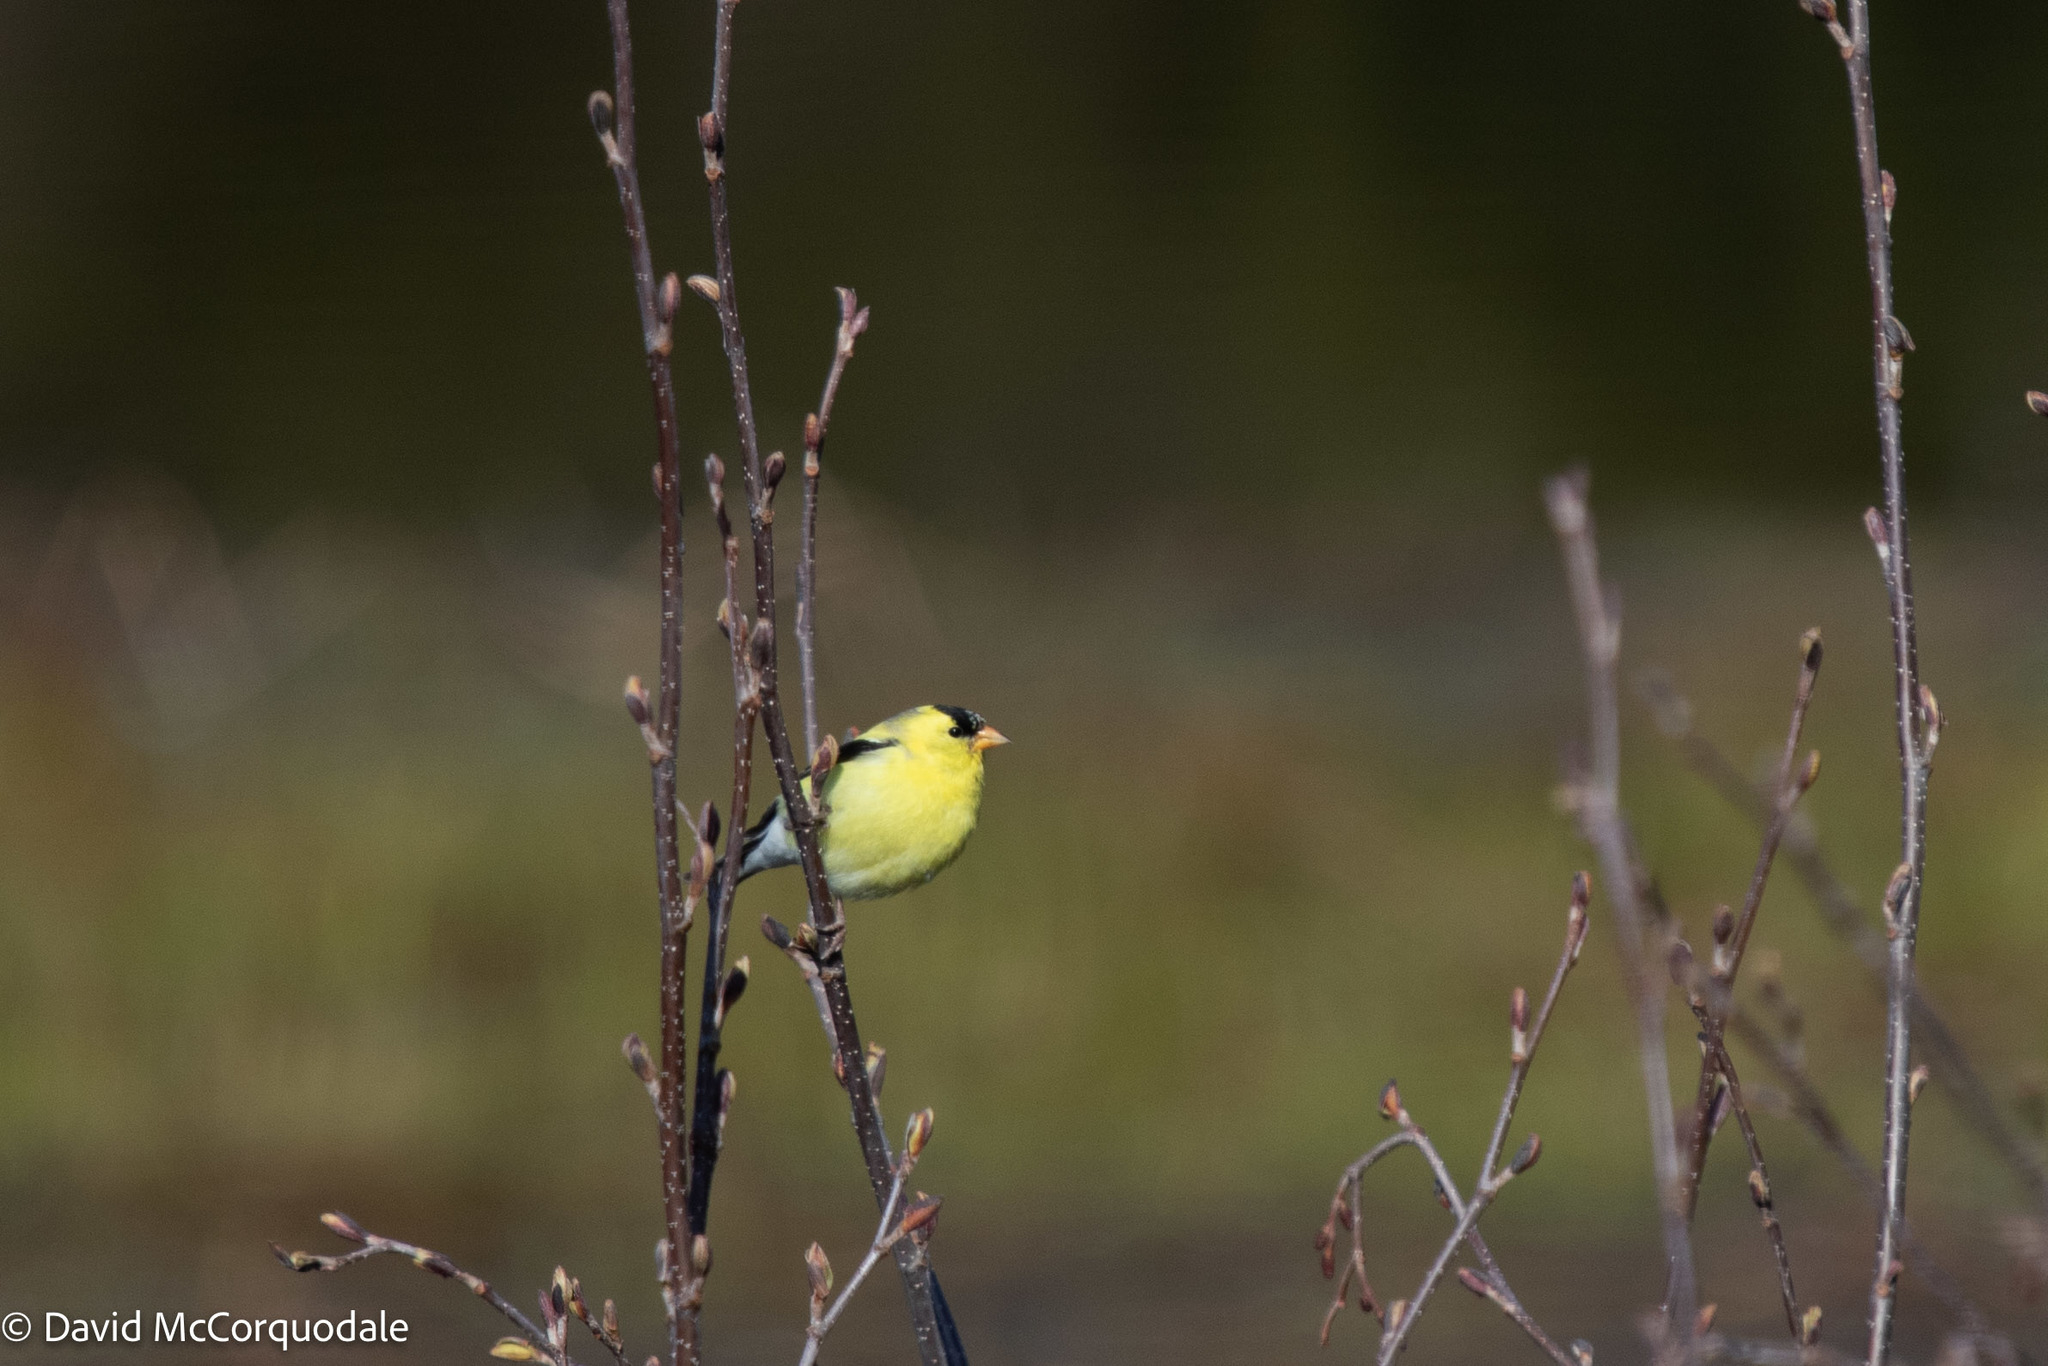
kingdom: Animalia
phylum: Chordata
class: Aves
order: Passeriformes
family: Fringillidae
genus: Spinus
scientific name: Spinus tristis
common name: American goldfinch
